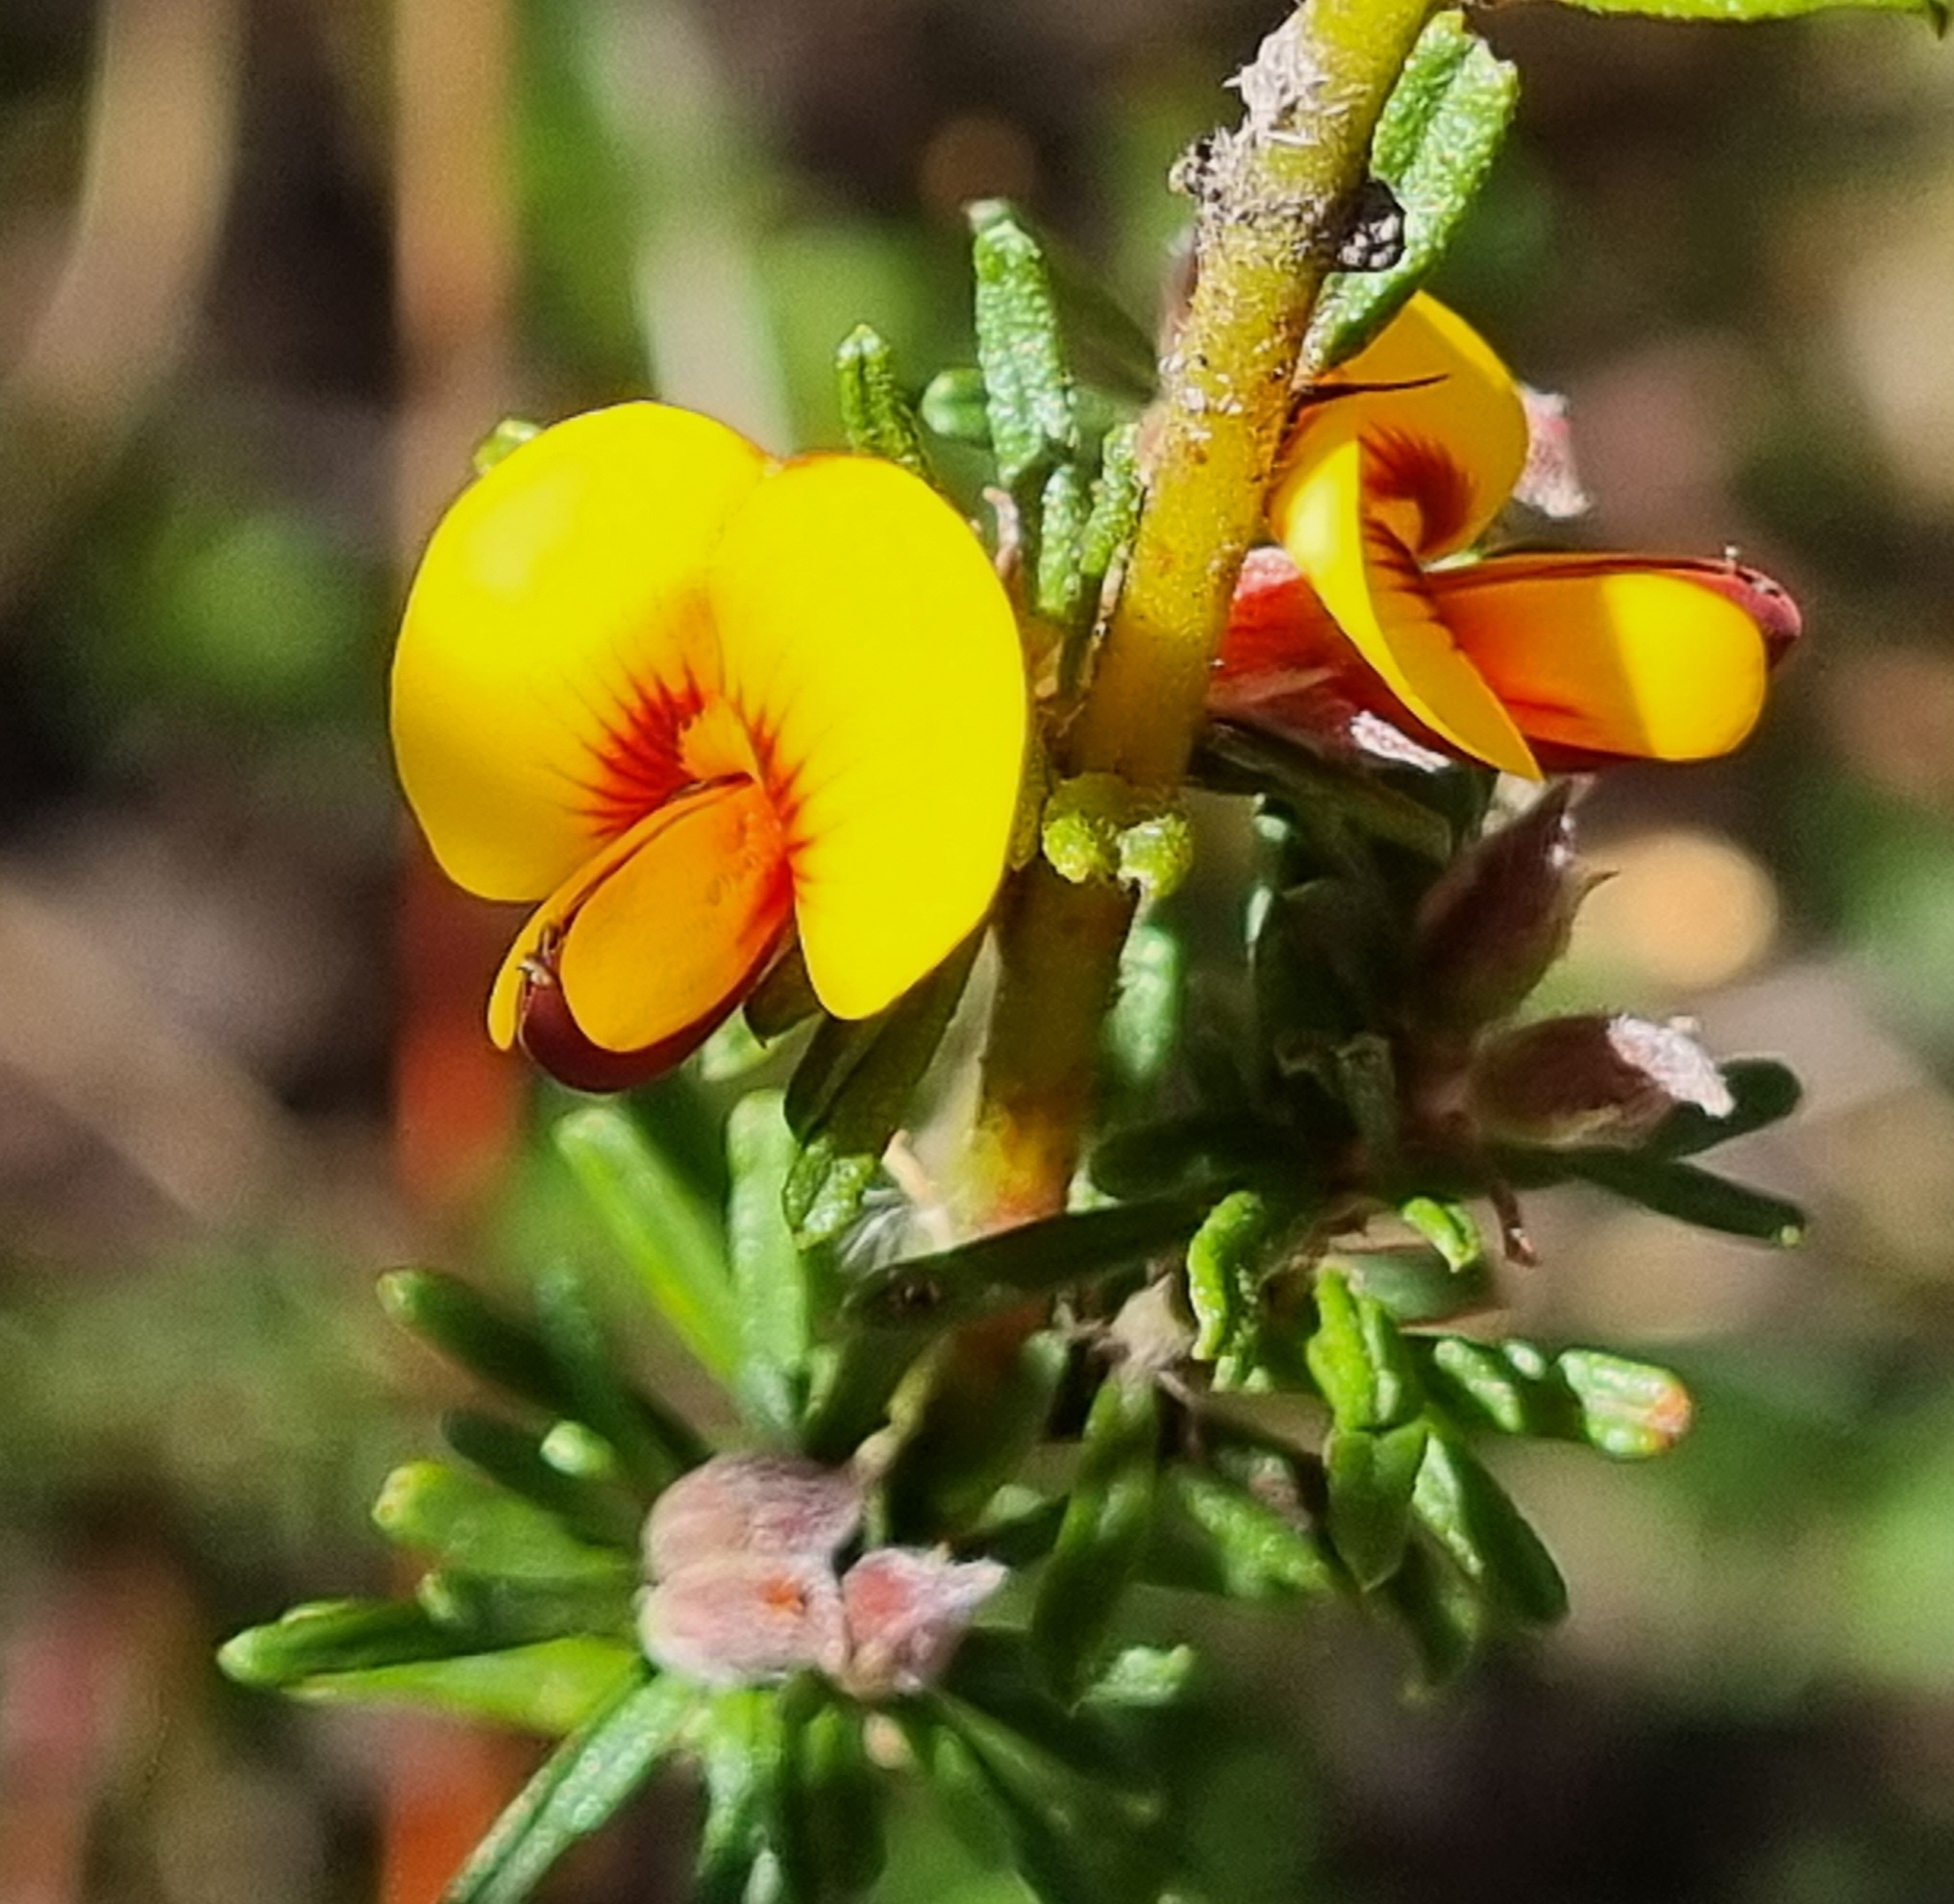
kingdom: Plantae
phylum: Tracheophyta
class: Magnoliopsida
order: Fabales
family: Fabaceae
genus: Dillwynia
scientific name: Dillwynia sericea
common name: Showy parrot-pea
